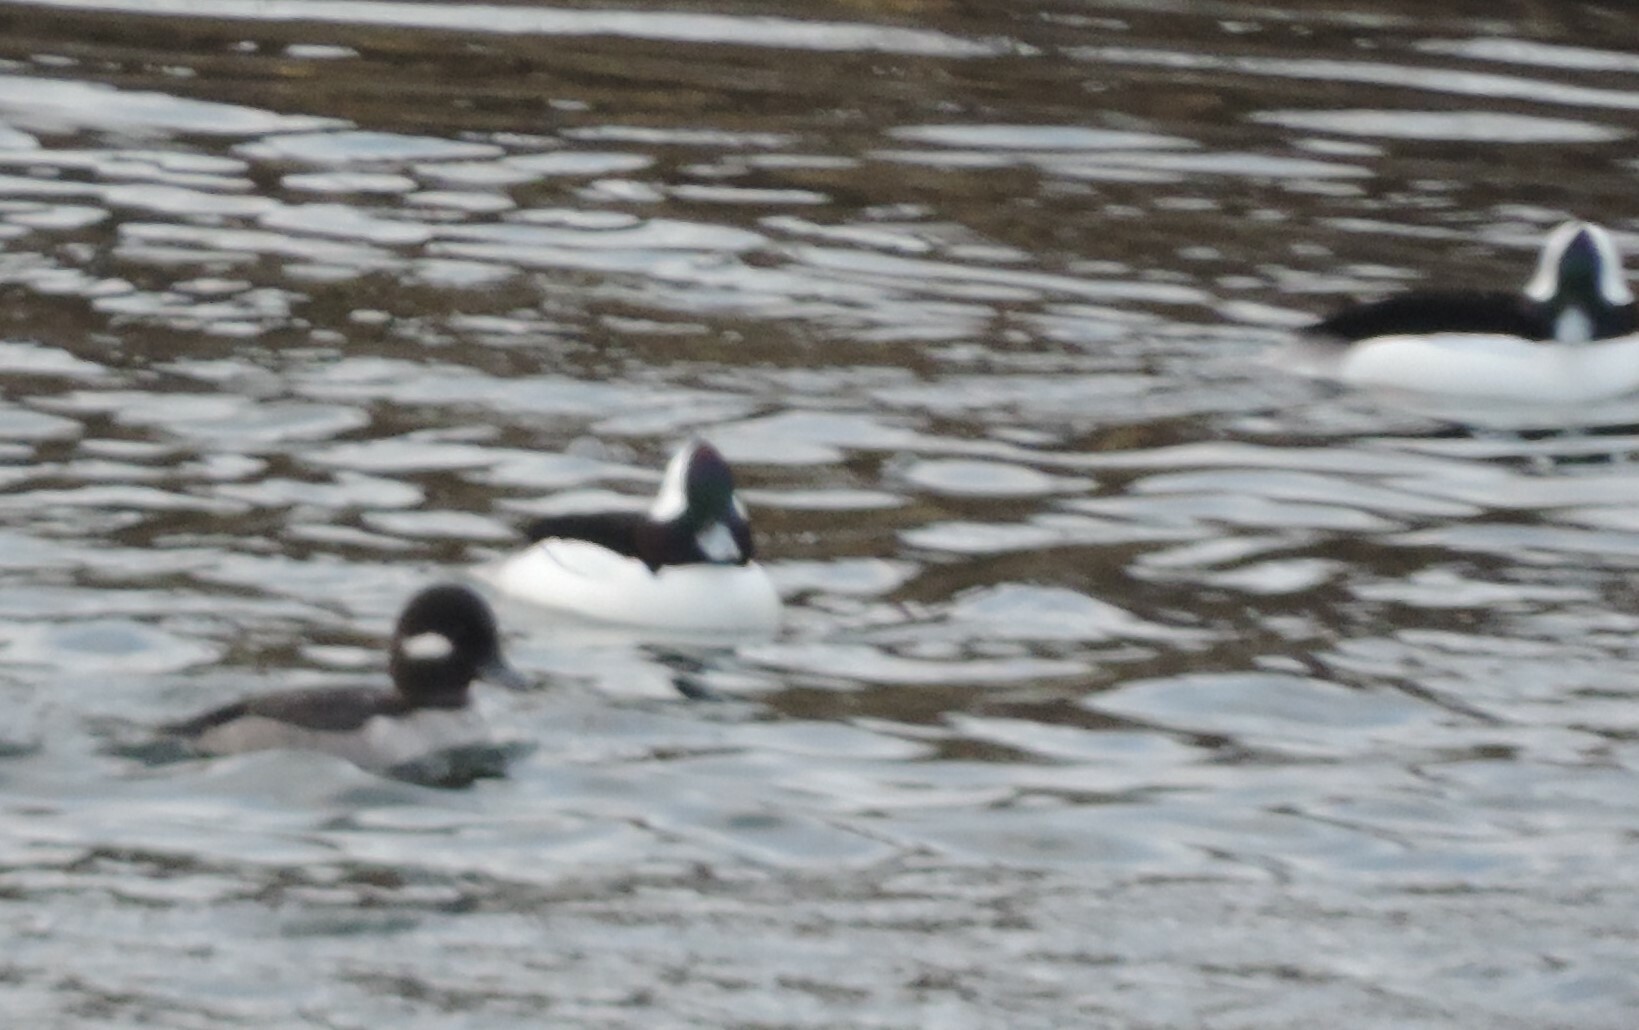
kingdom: Animalia
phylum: Chordata
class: Aves
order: Anseriformes
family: Anatidae
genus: Bucephala
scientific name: Bucephala albeola
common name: Bufflehead
